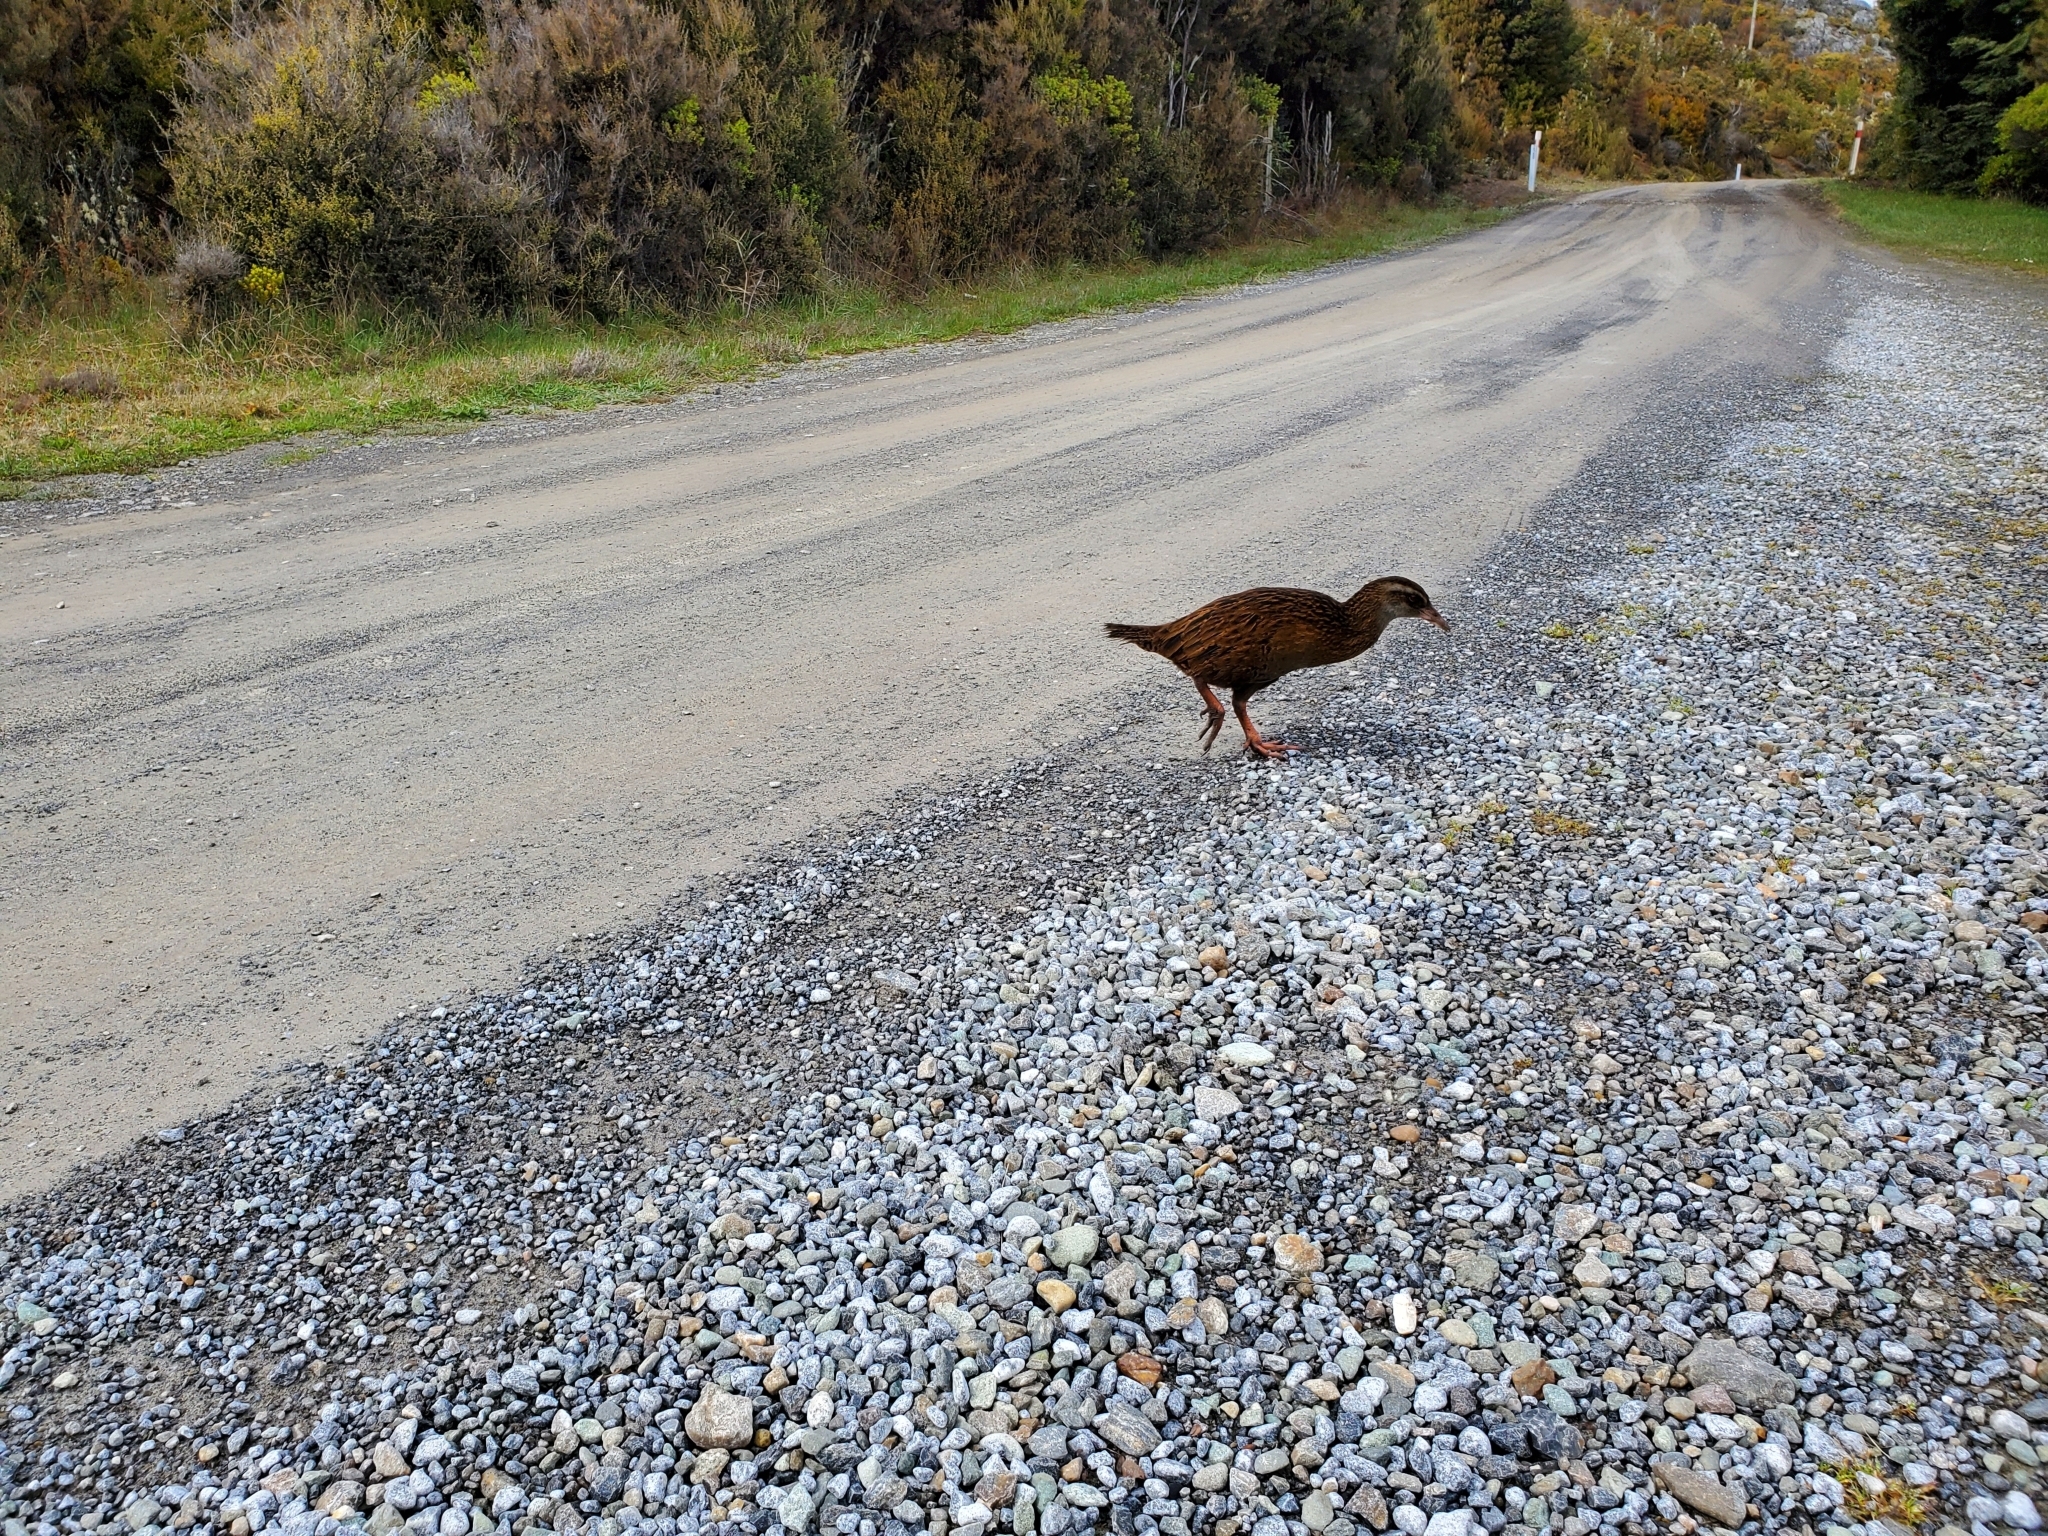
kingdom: Animalia
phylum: Chordata
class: Aves
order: Gruiformes
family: Rallidae
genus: Gallirallus
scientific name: Gallirallus australis
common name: Weka
